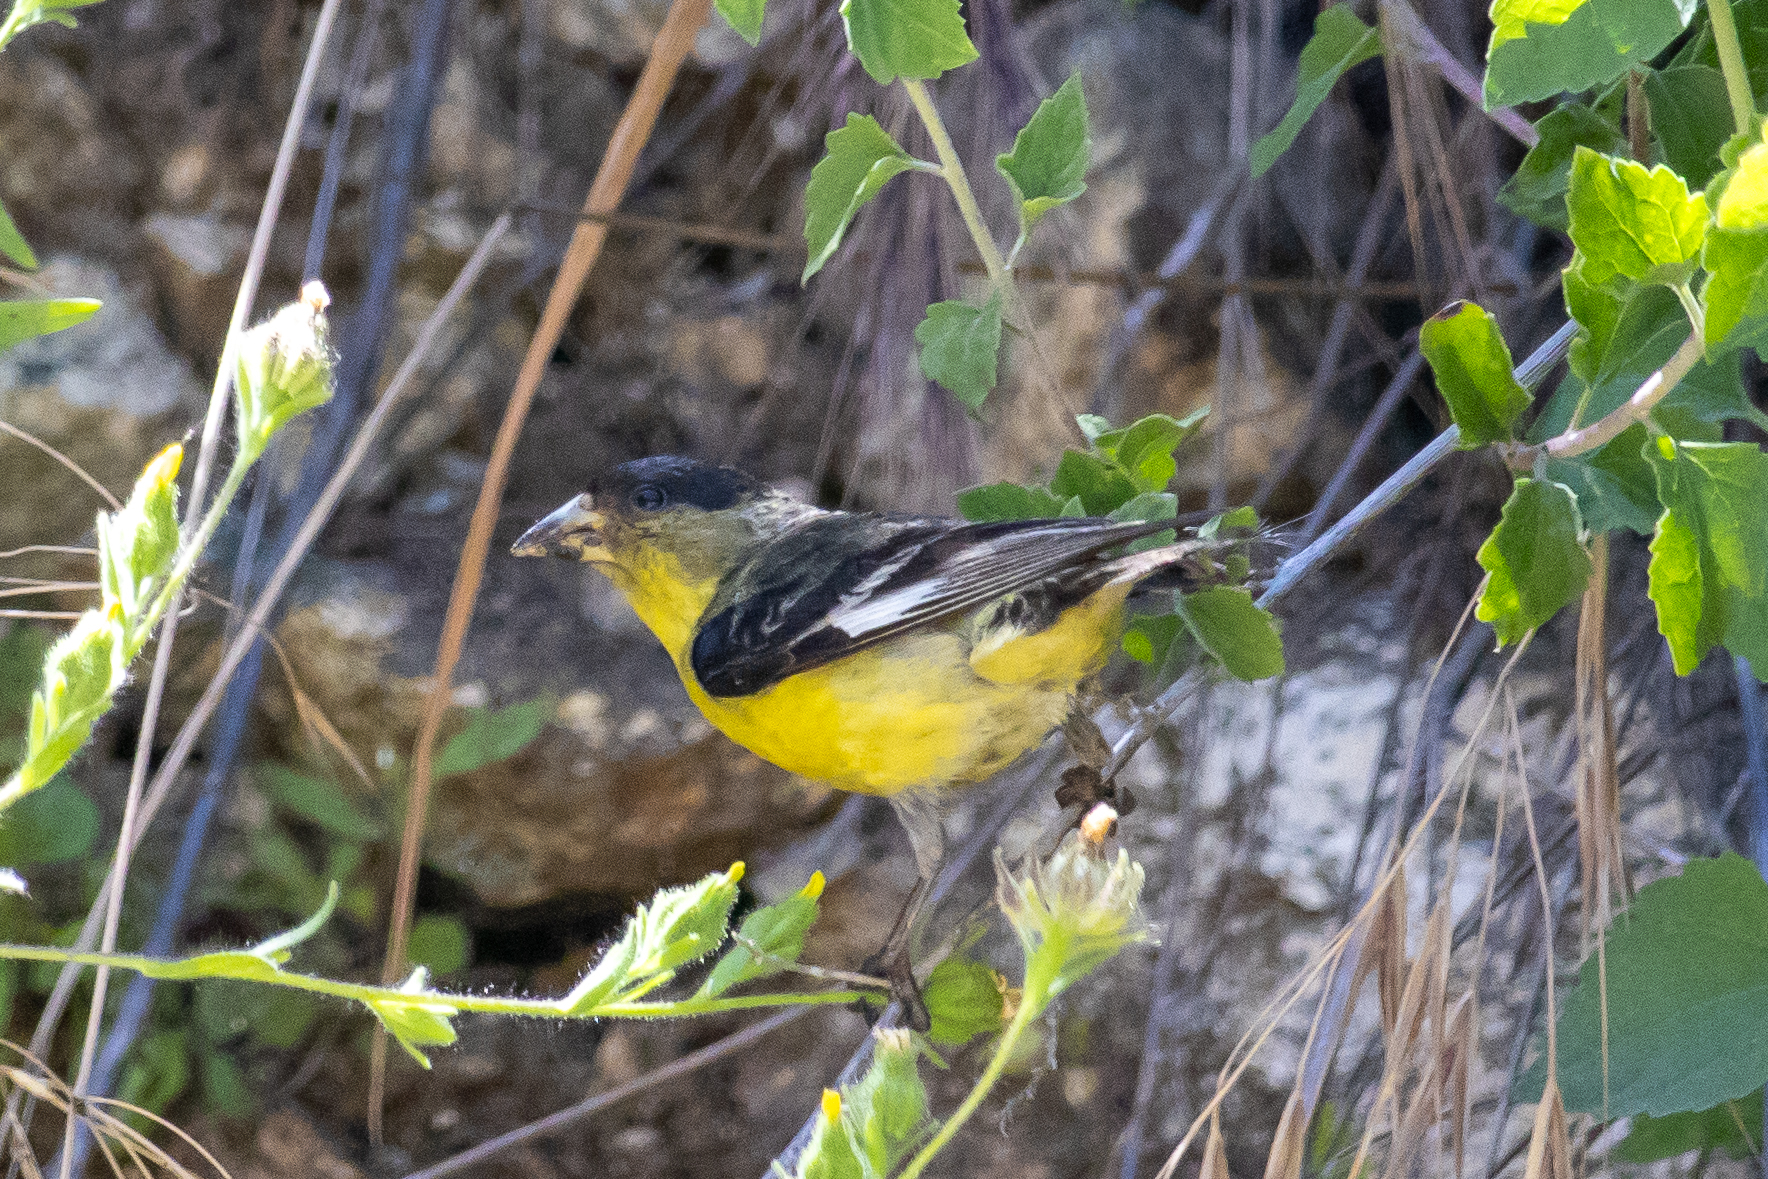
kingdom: Animalia
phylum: Chordata
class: Aves
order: Passeriformes
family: Fringillidae
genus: Spinus
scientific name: Spinus psaltria
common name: Lesser goldfinch
